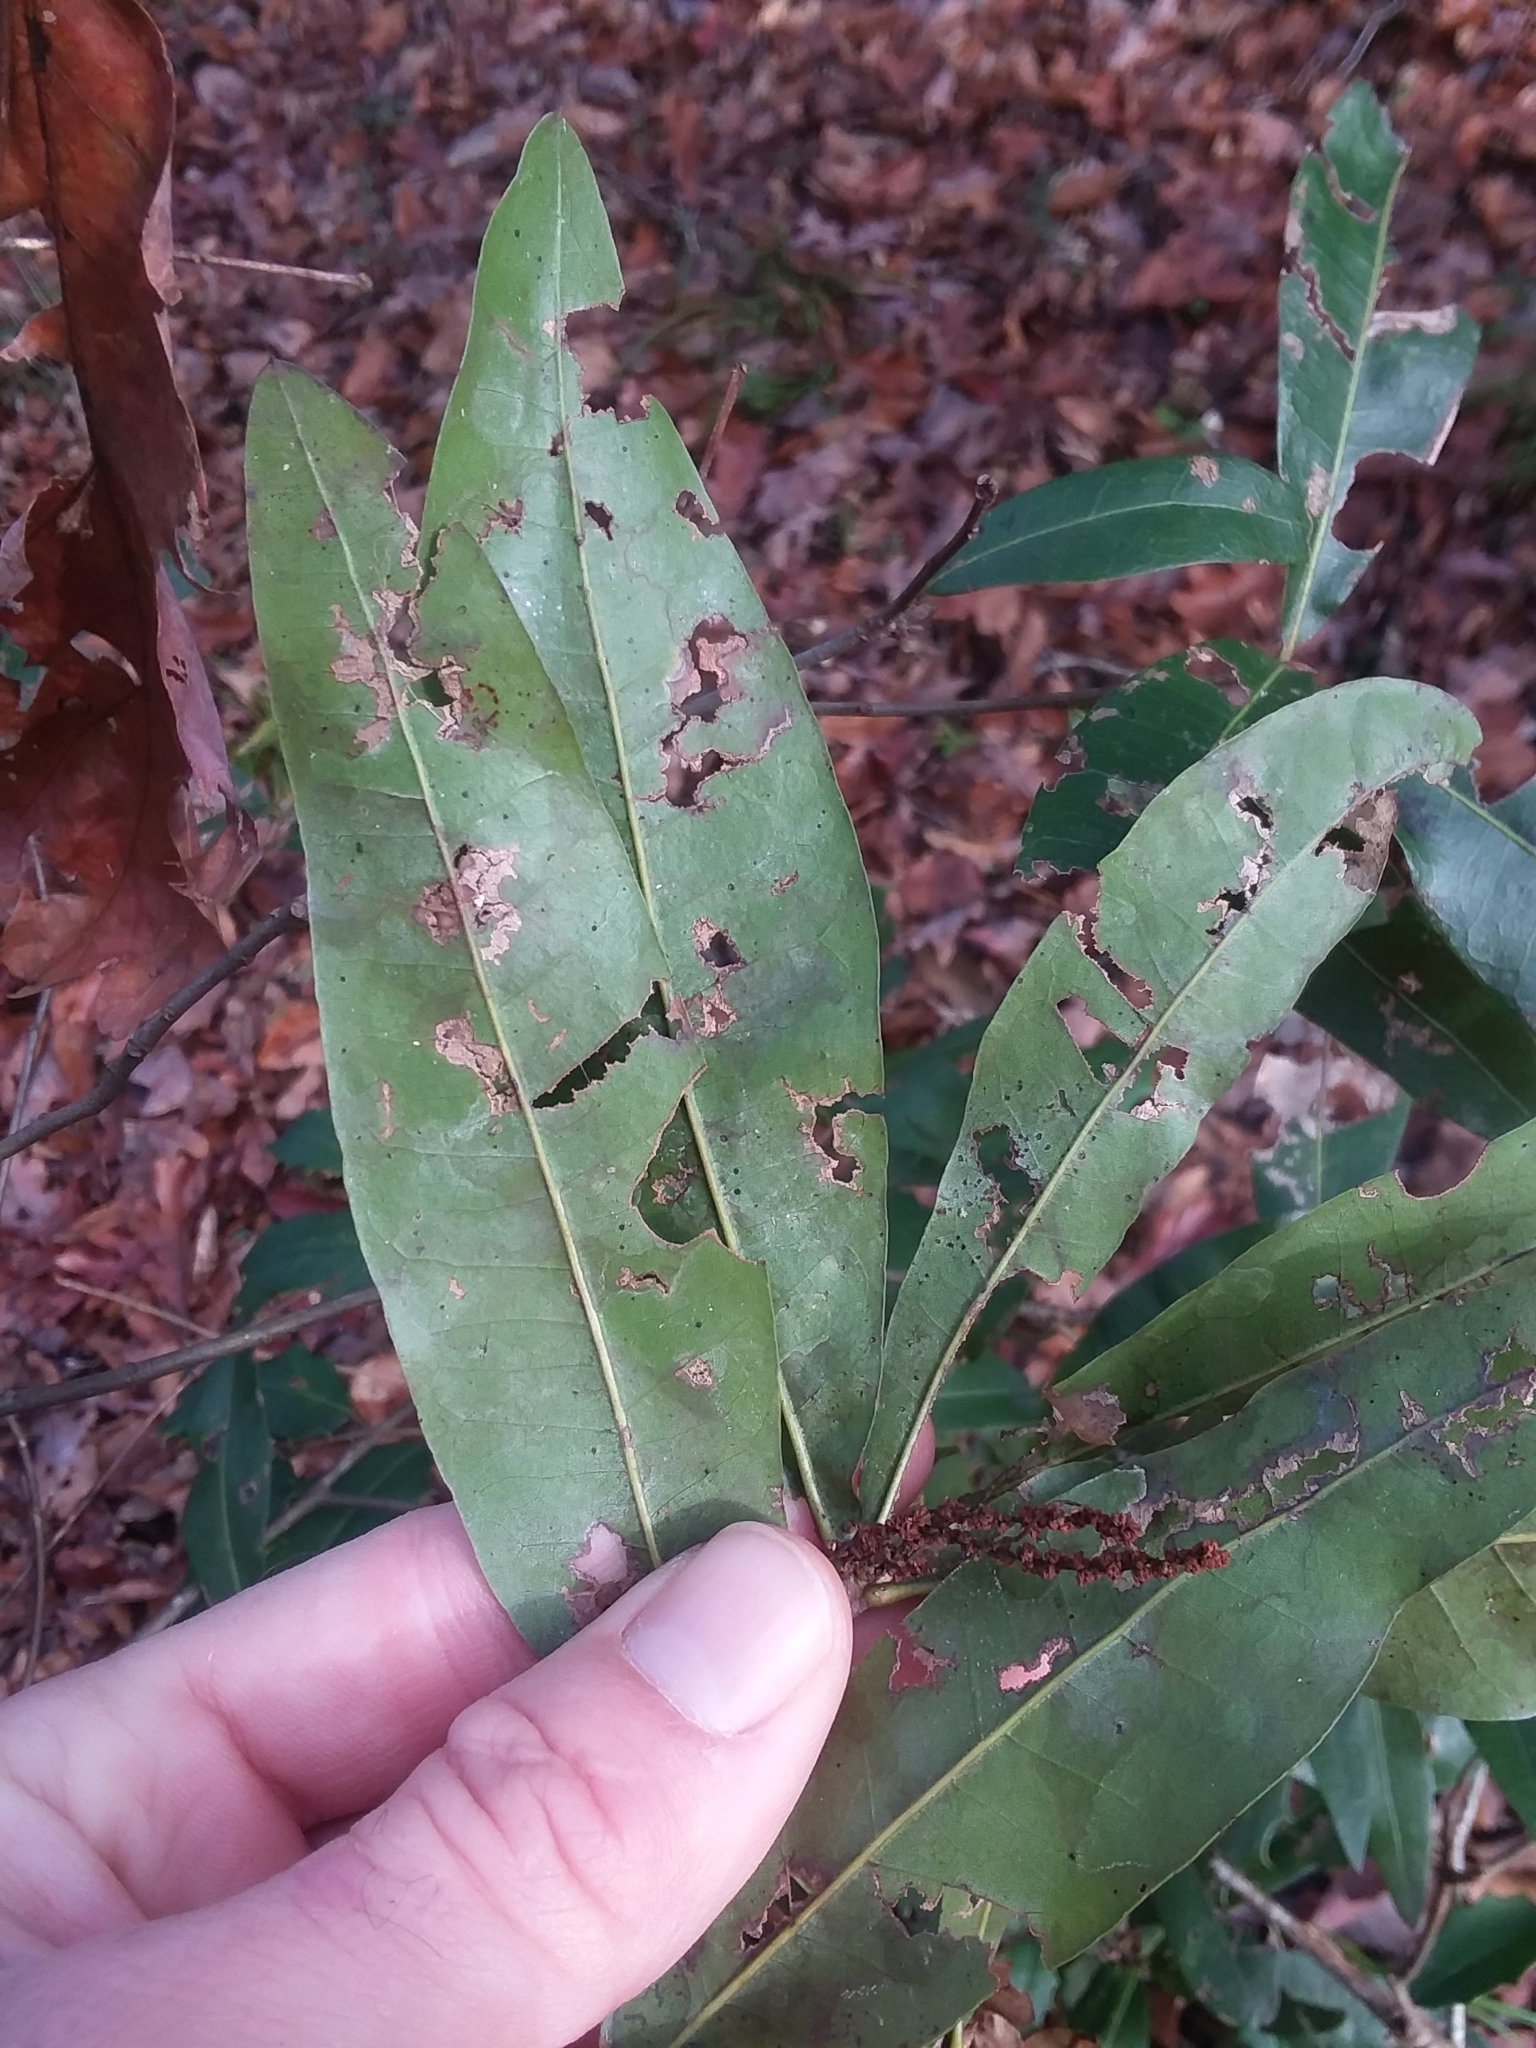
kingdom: Plantae
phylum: Tracheophyta
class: Magnoliopsida
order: Fagales
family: Fagaceae
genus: Quercus
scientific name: Quercus hemisphaerica
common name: Darlington oak
